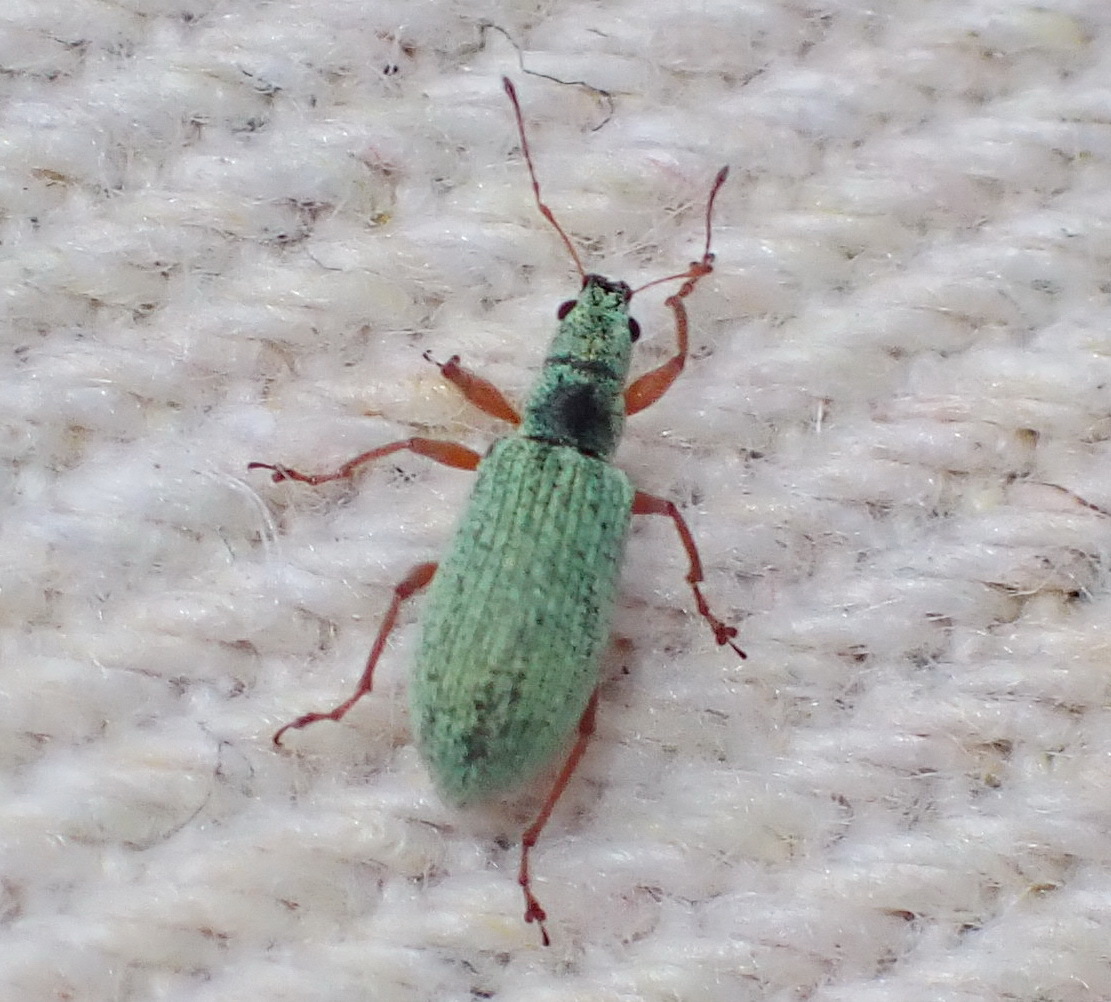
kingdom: Animalia
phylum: Arthropoda
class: Insecta
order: Coleoptera
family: Curculionidae
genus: Polydrusus
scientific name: Polydrusus impressifrons
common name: Weevil
